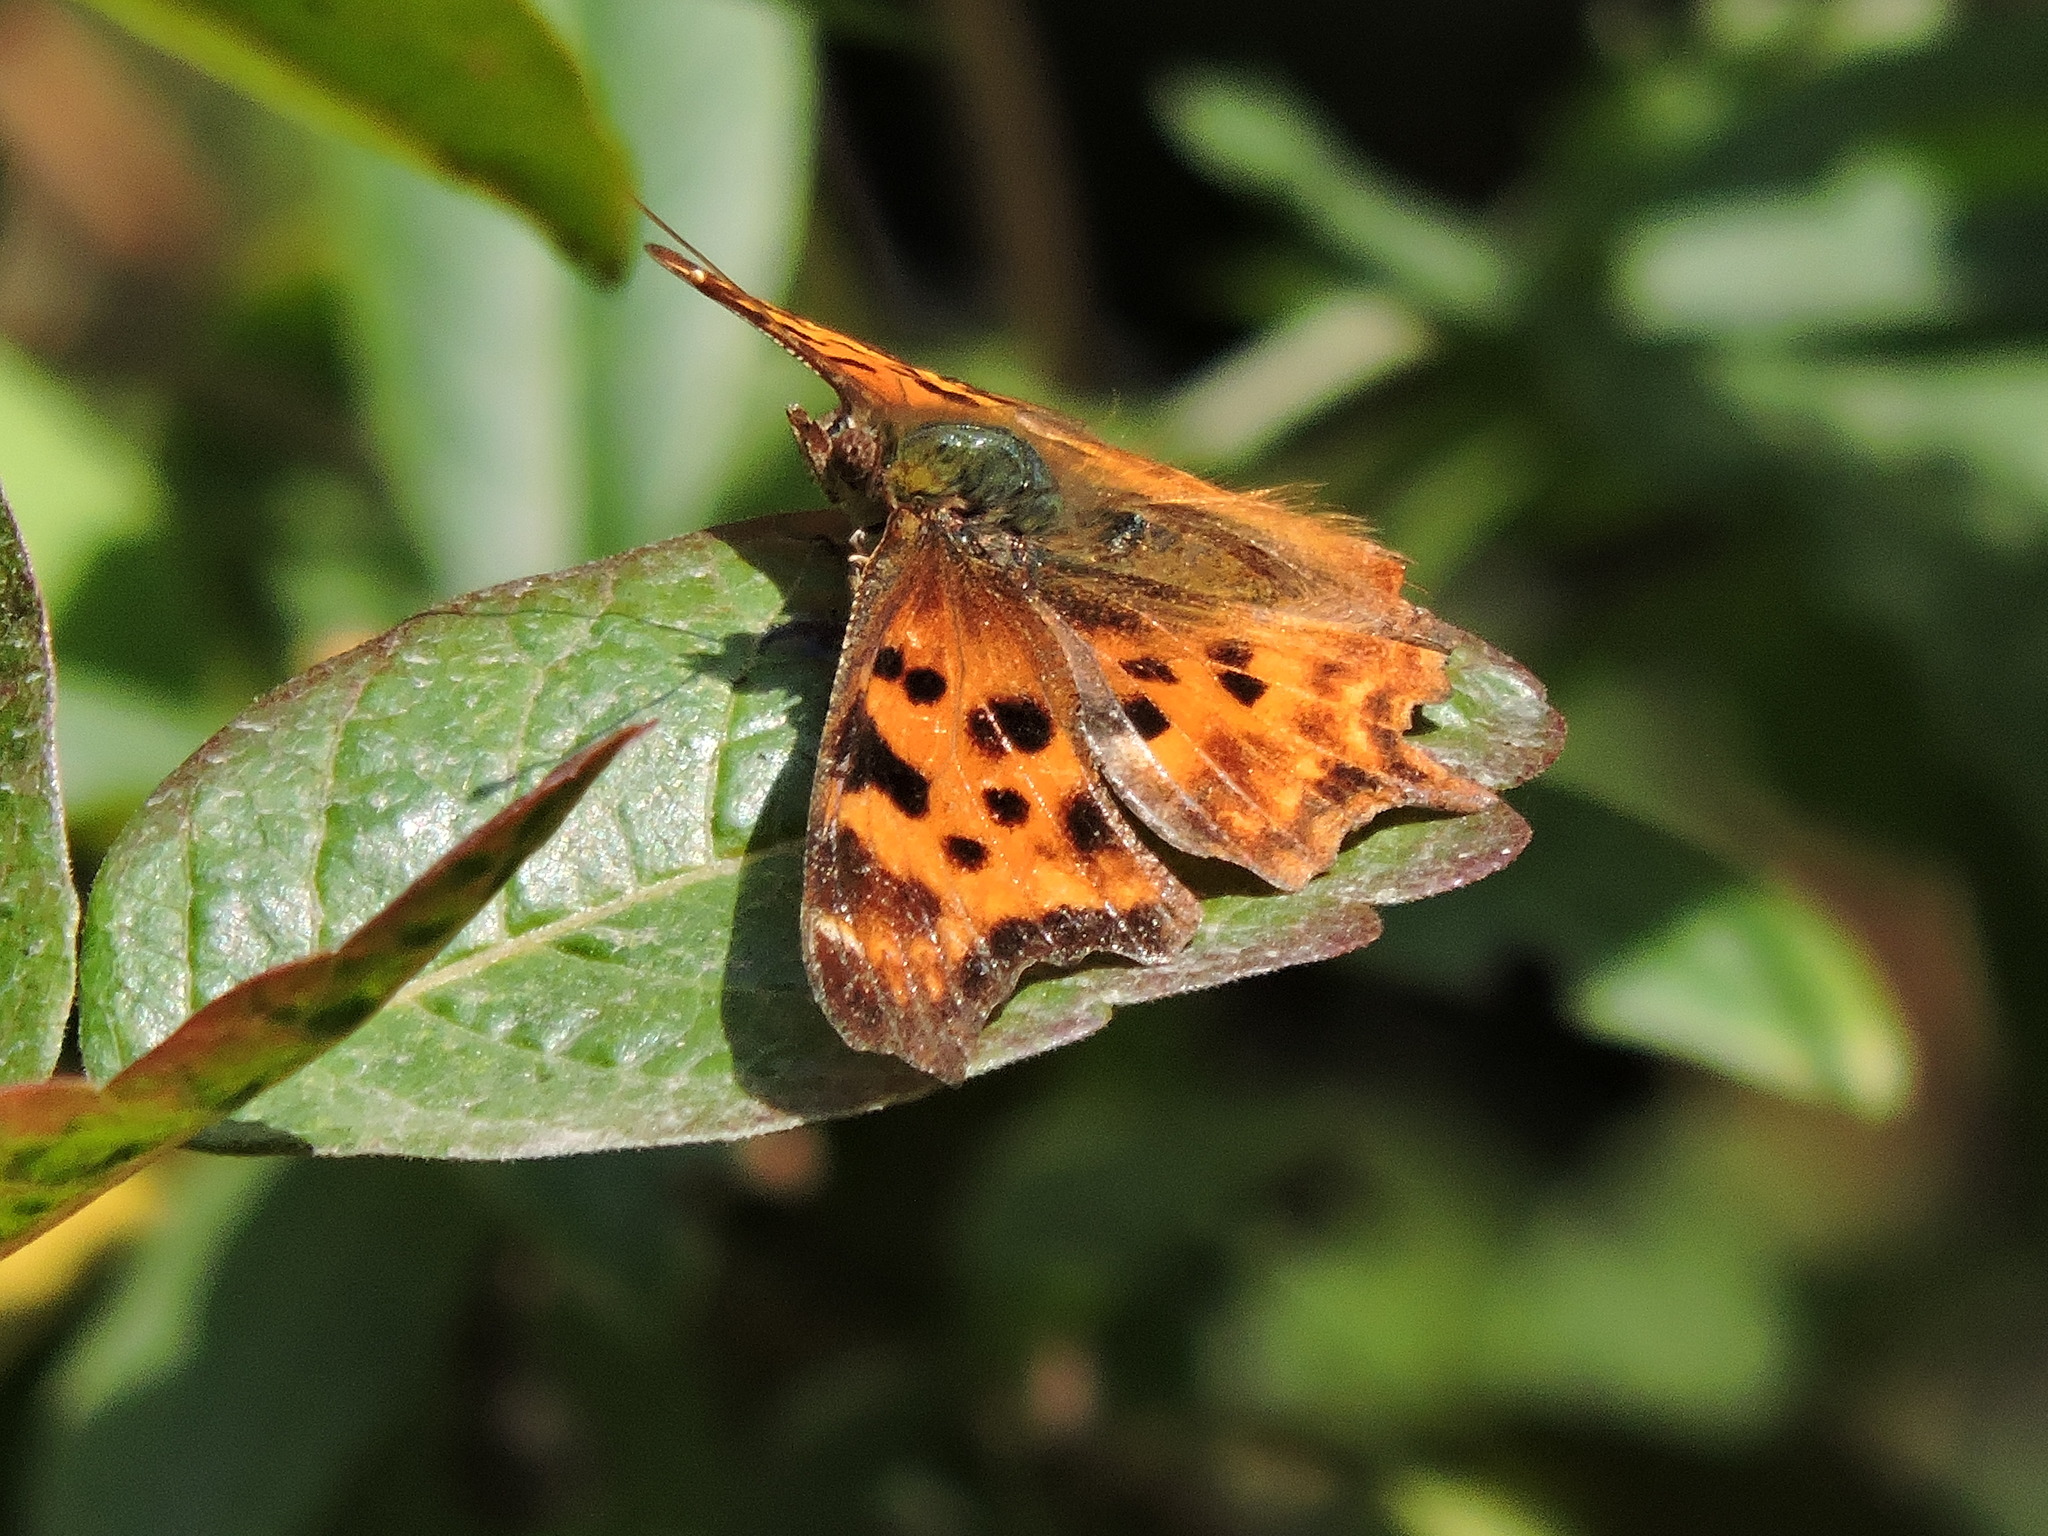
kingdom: Animalia
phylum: Arthropoda
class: Insecta
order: Lepidoptera
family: Nymphalidae
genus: Polygonia
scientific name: Polygonia satyrus
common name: Satyr angle wing
